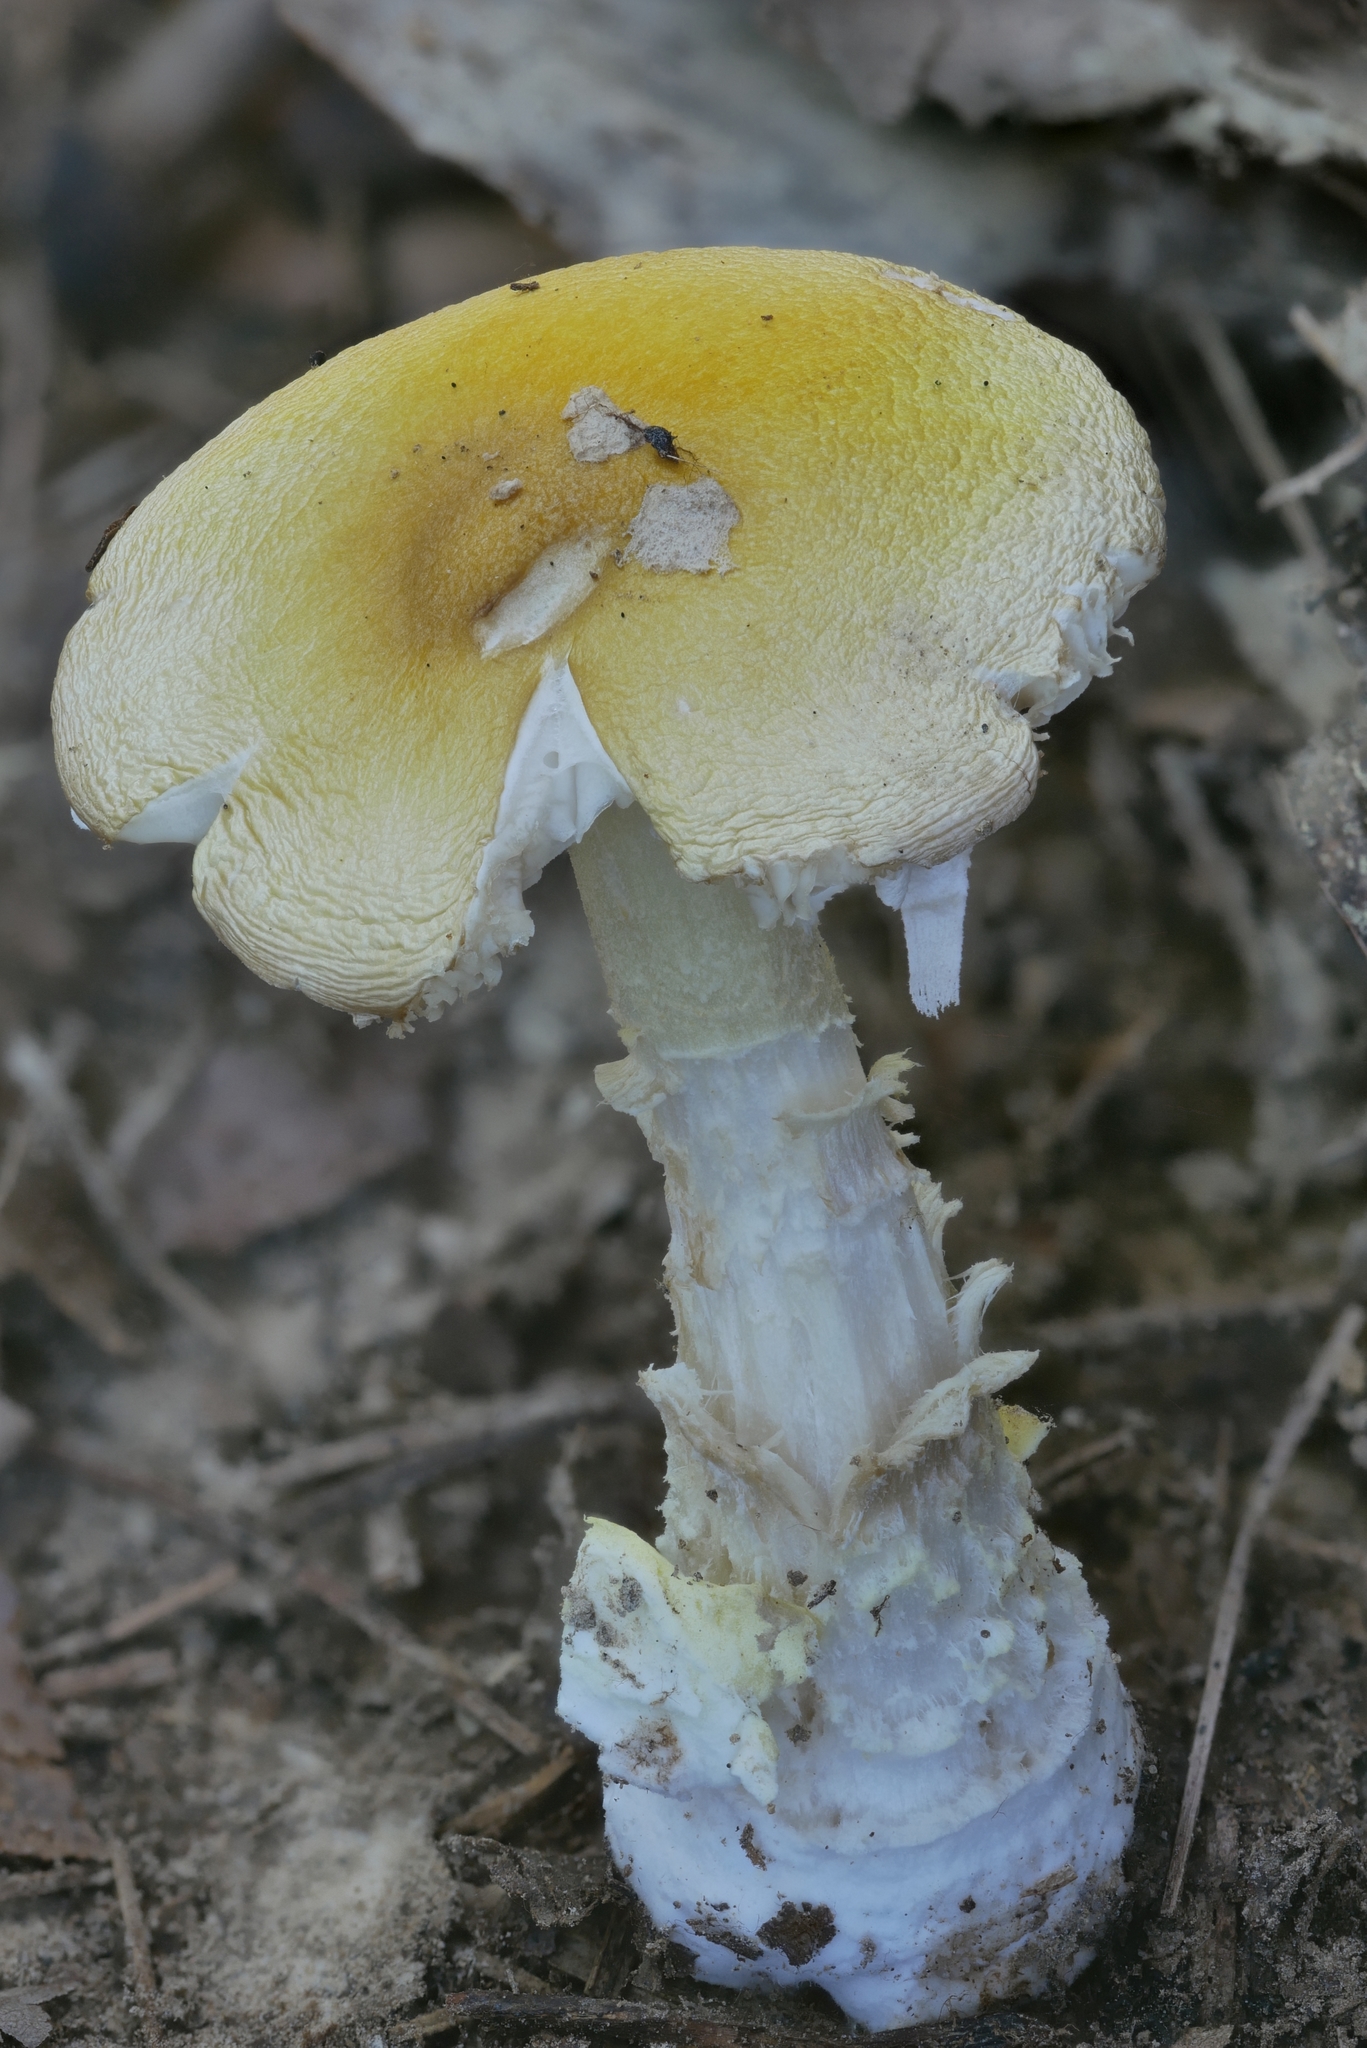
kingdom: Fungi
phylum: Basidiomycota
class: Agaricomycetes
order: Agaricales
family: Amanitaceae
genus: Amanita
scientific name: Amanita flavoconia
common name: Yellow patches
